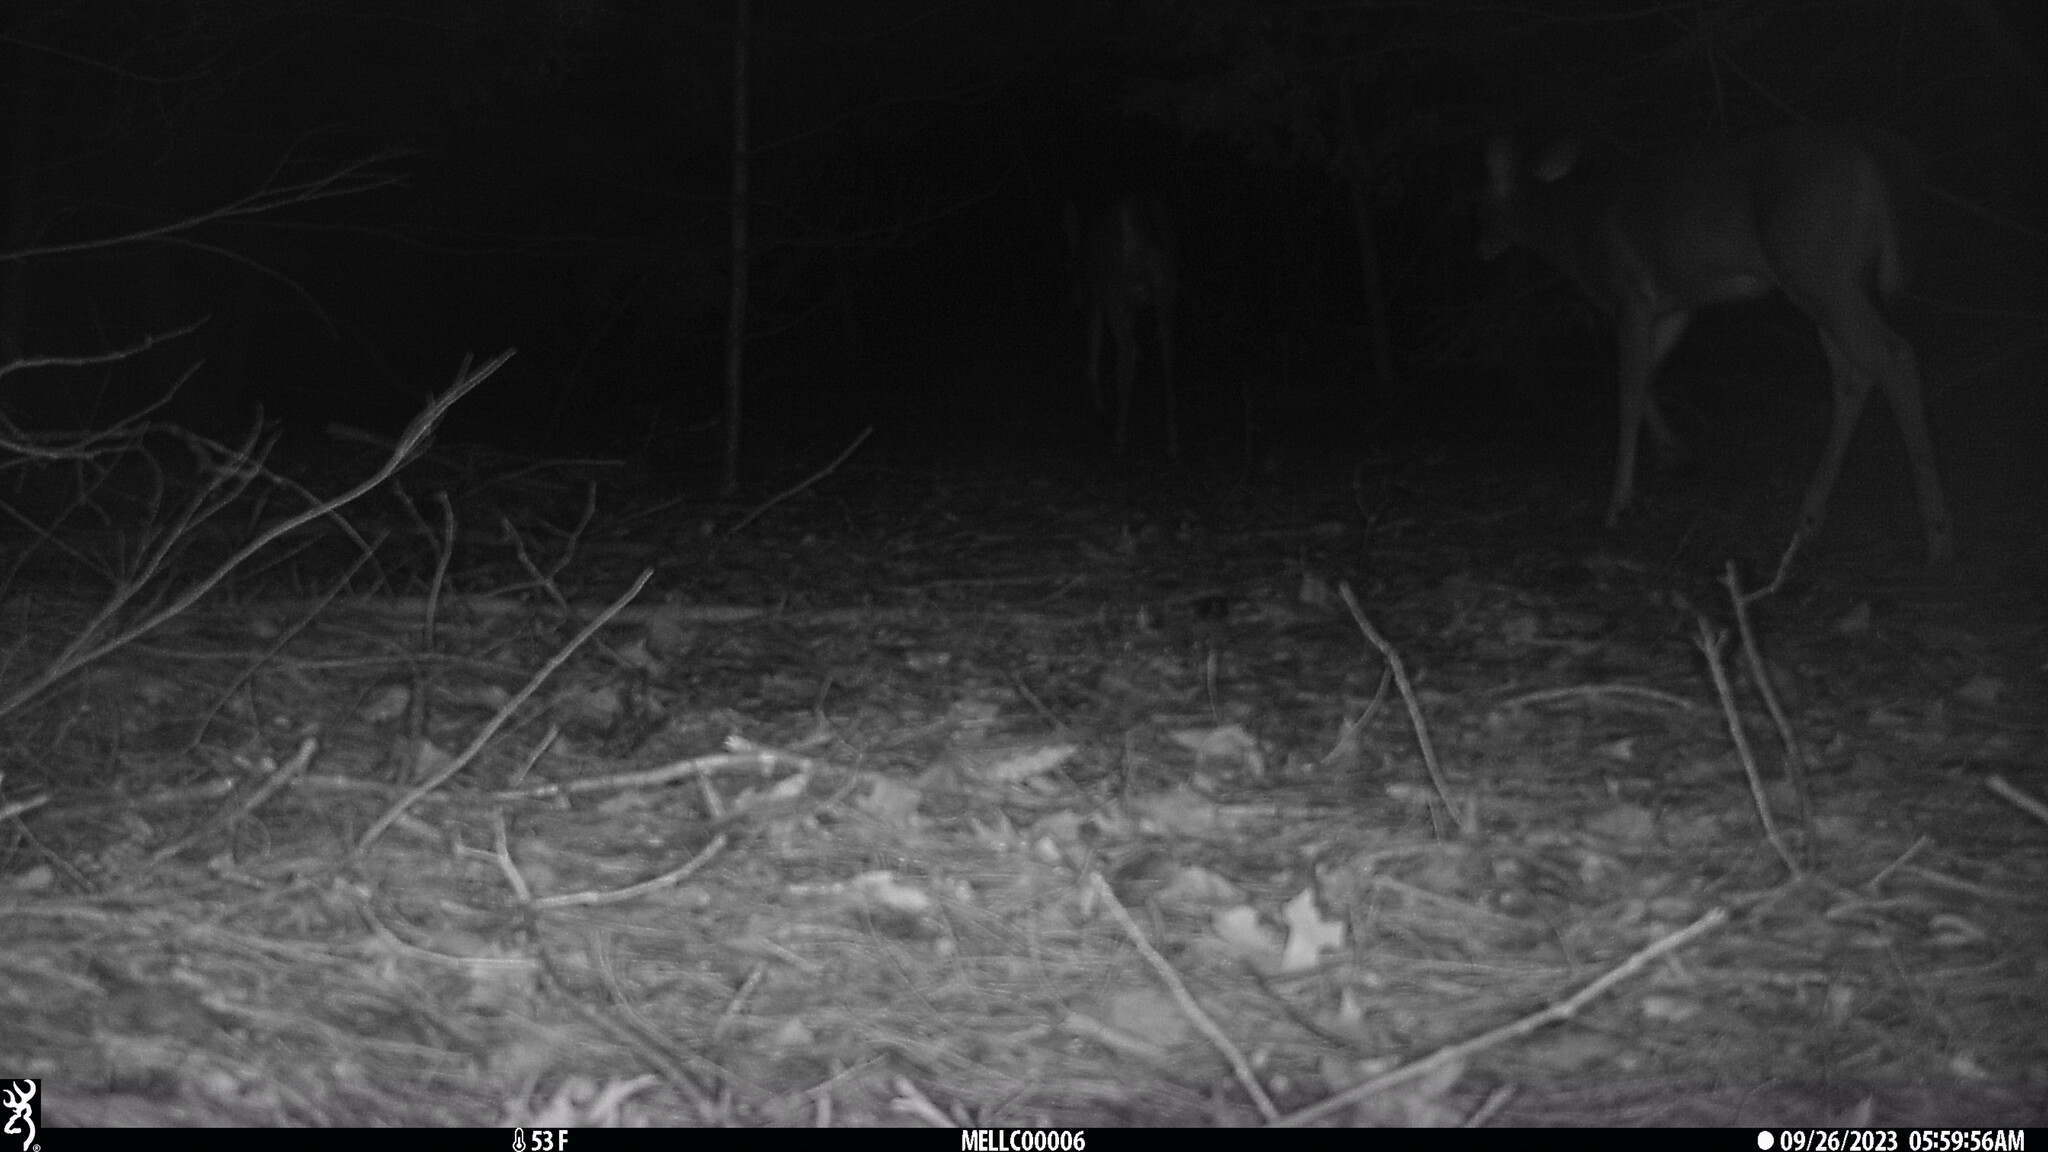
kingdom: Animalia
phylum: Chordata
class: Mammalia
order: Artiodactyla
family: Cervidae
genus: Odocoileus
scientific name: Odocoileus virginianus
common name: White-tailed deer
